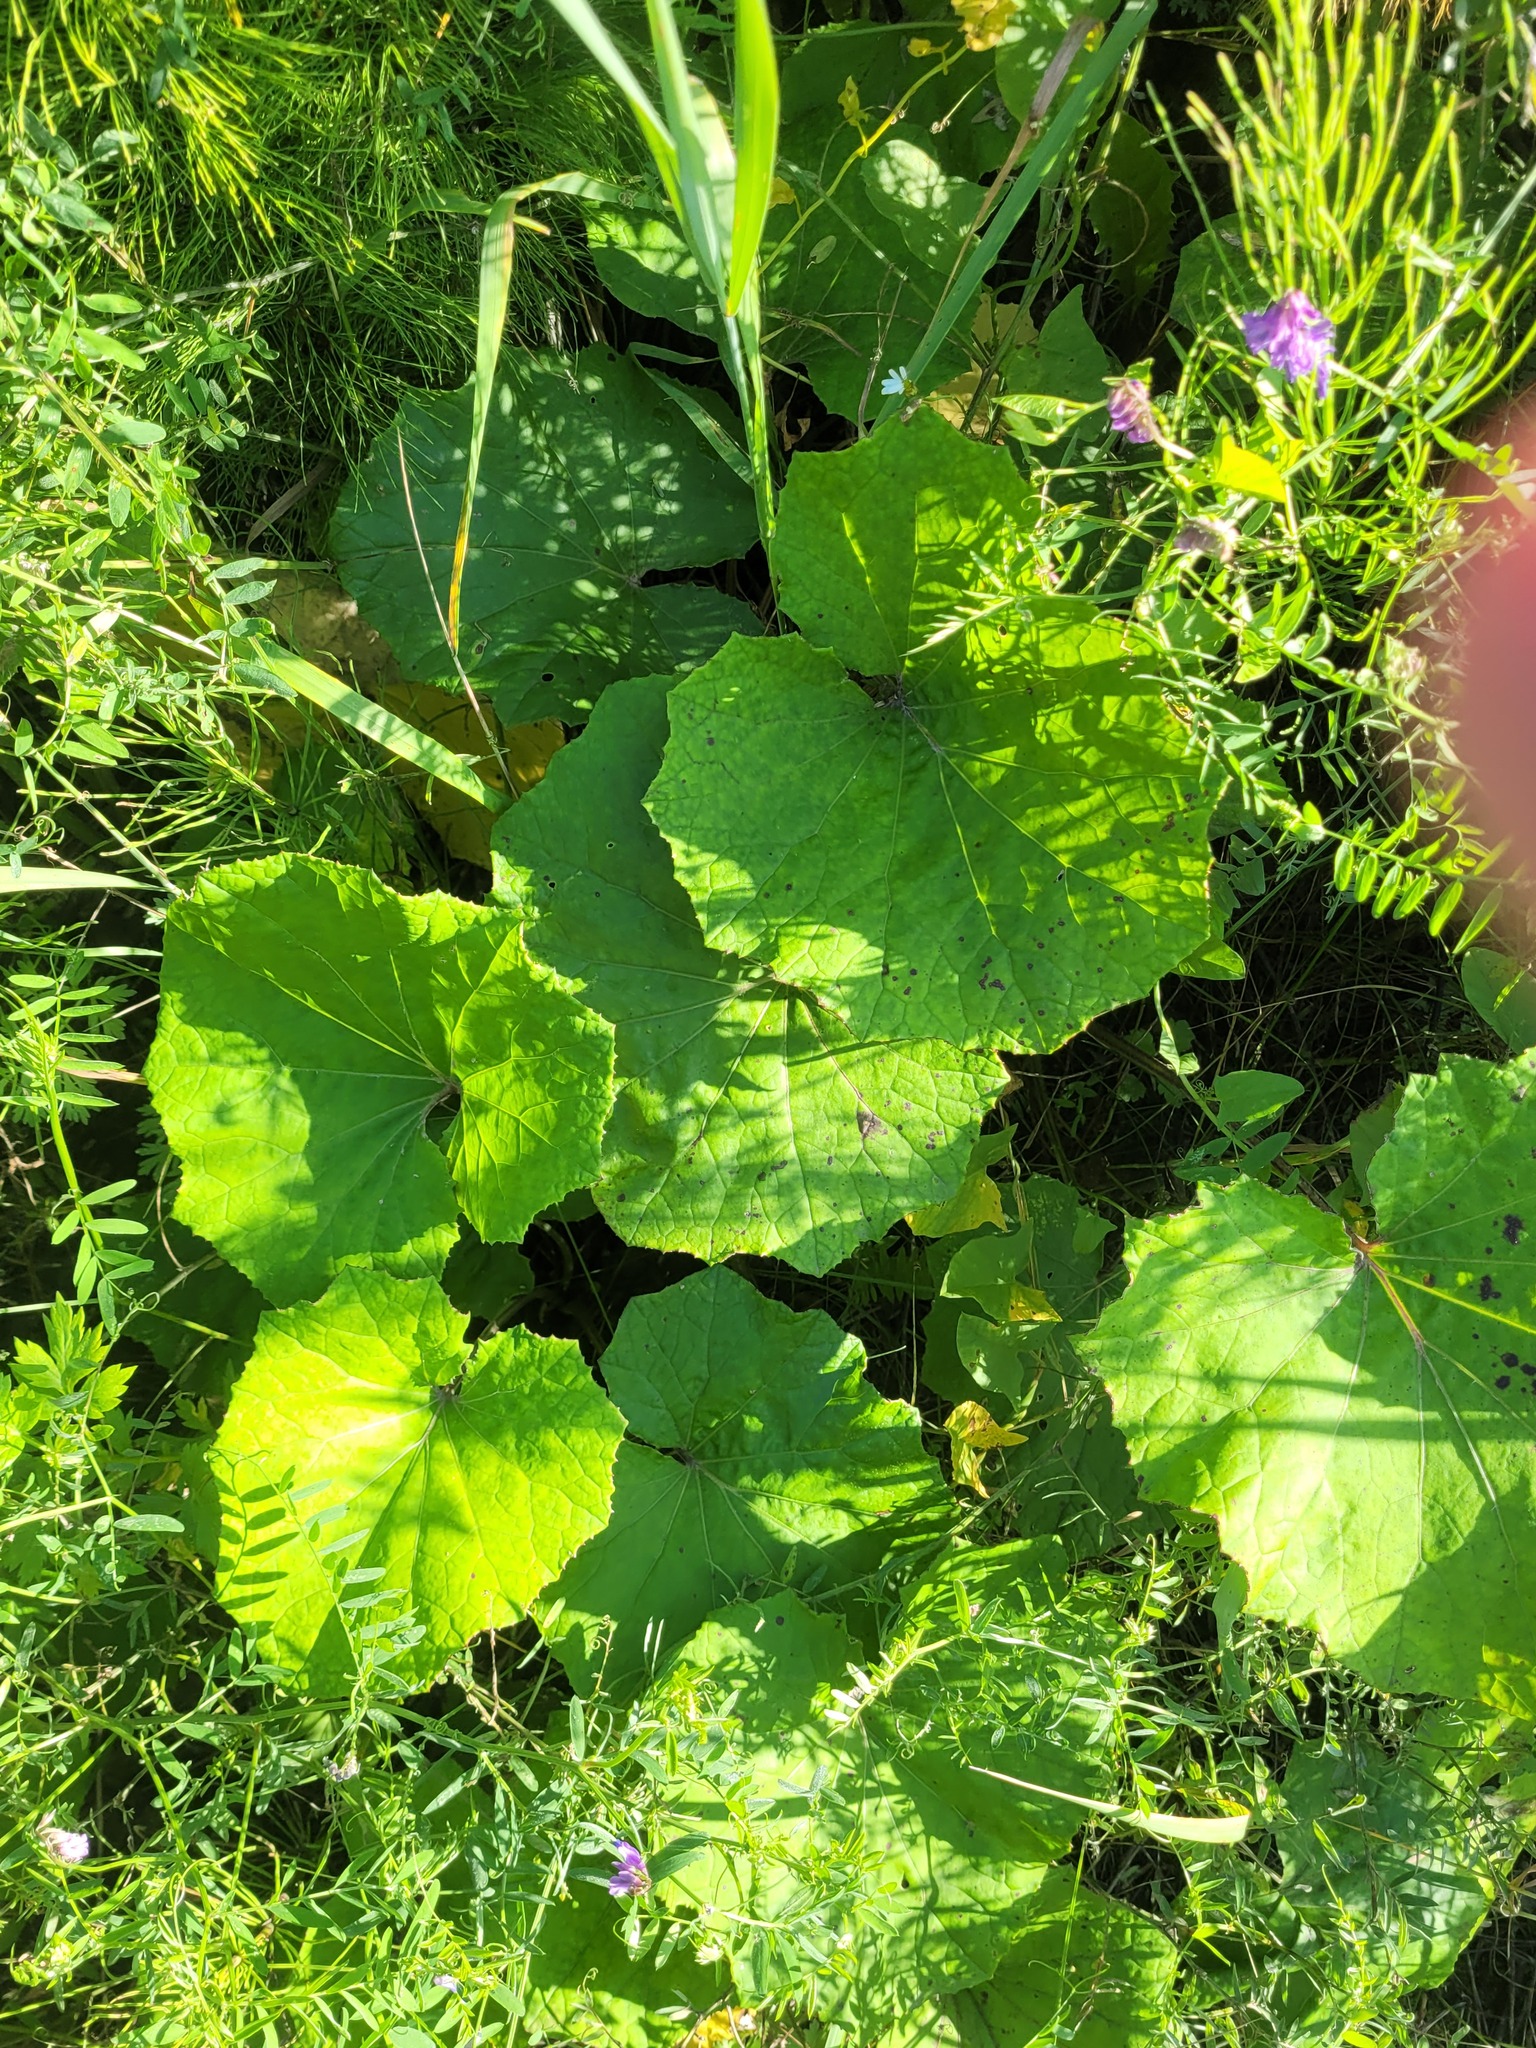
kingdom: Plantae
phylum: Tracheophyta
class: Magnoliopsida
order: Asterales
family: Asteraceae
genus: Tussilago
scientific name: Tussilago farfara
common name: Coltsfoot
